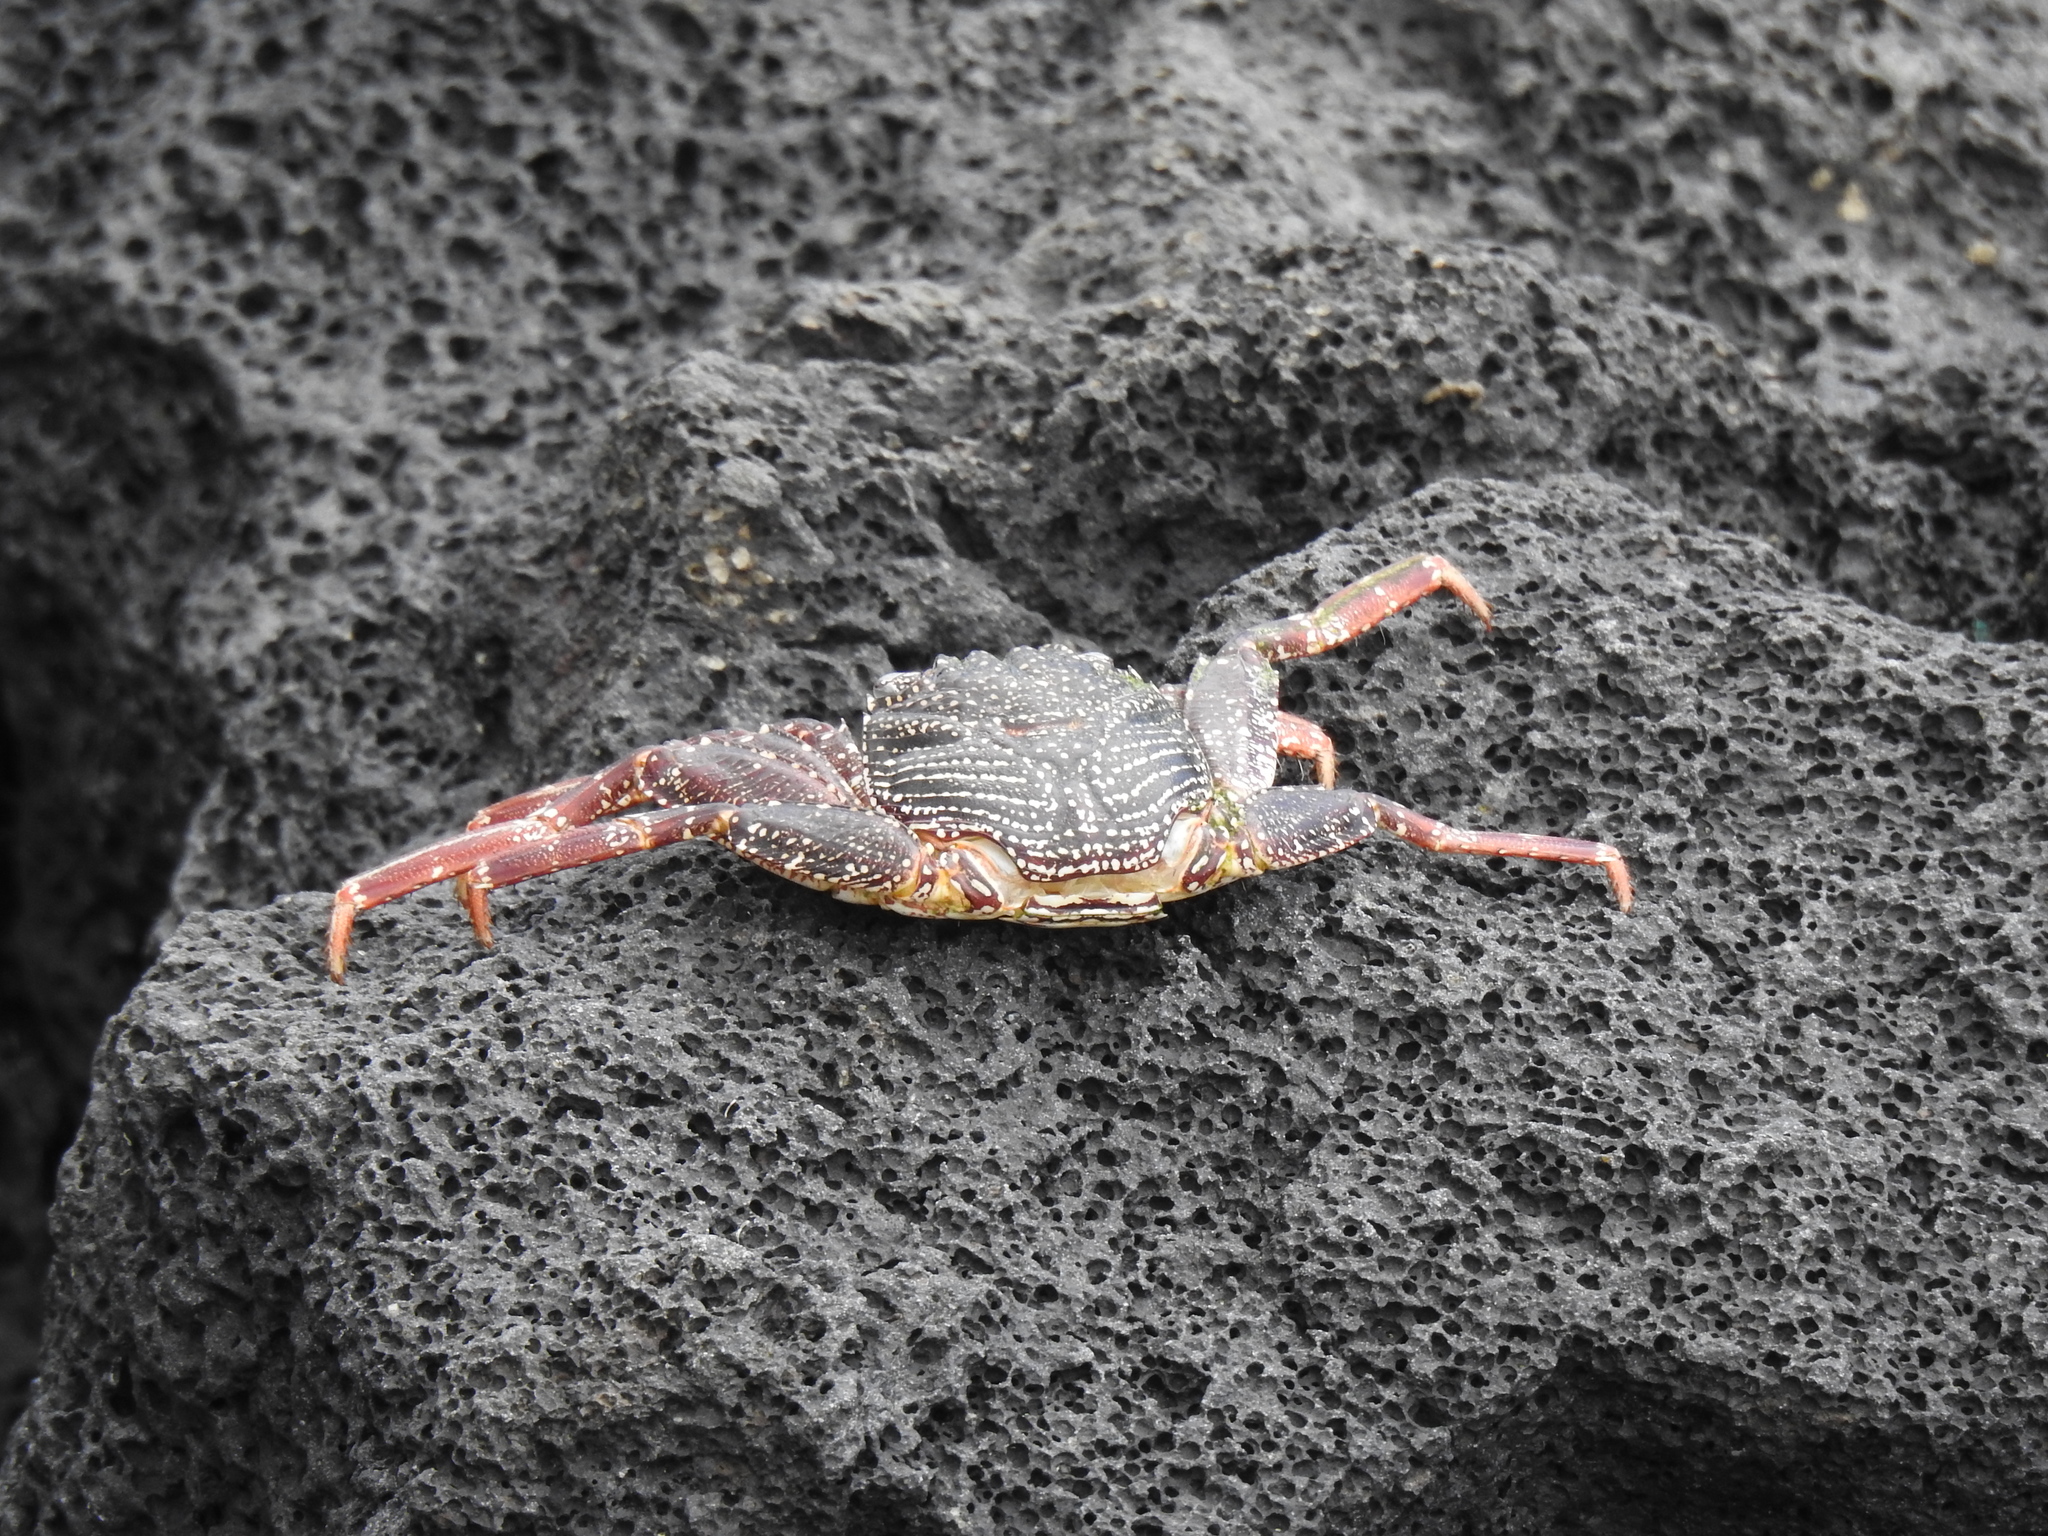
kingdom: Animalia
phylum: Arthropoda
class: Malacostraca
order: Decapoda
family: Grapsidae
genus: Grapsus
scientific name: Grapsus tenuicrustatus
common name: Natal lightfoot crab
